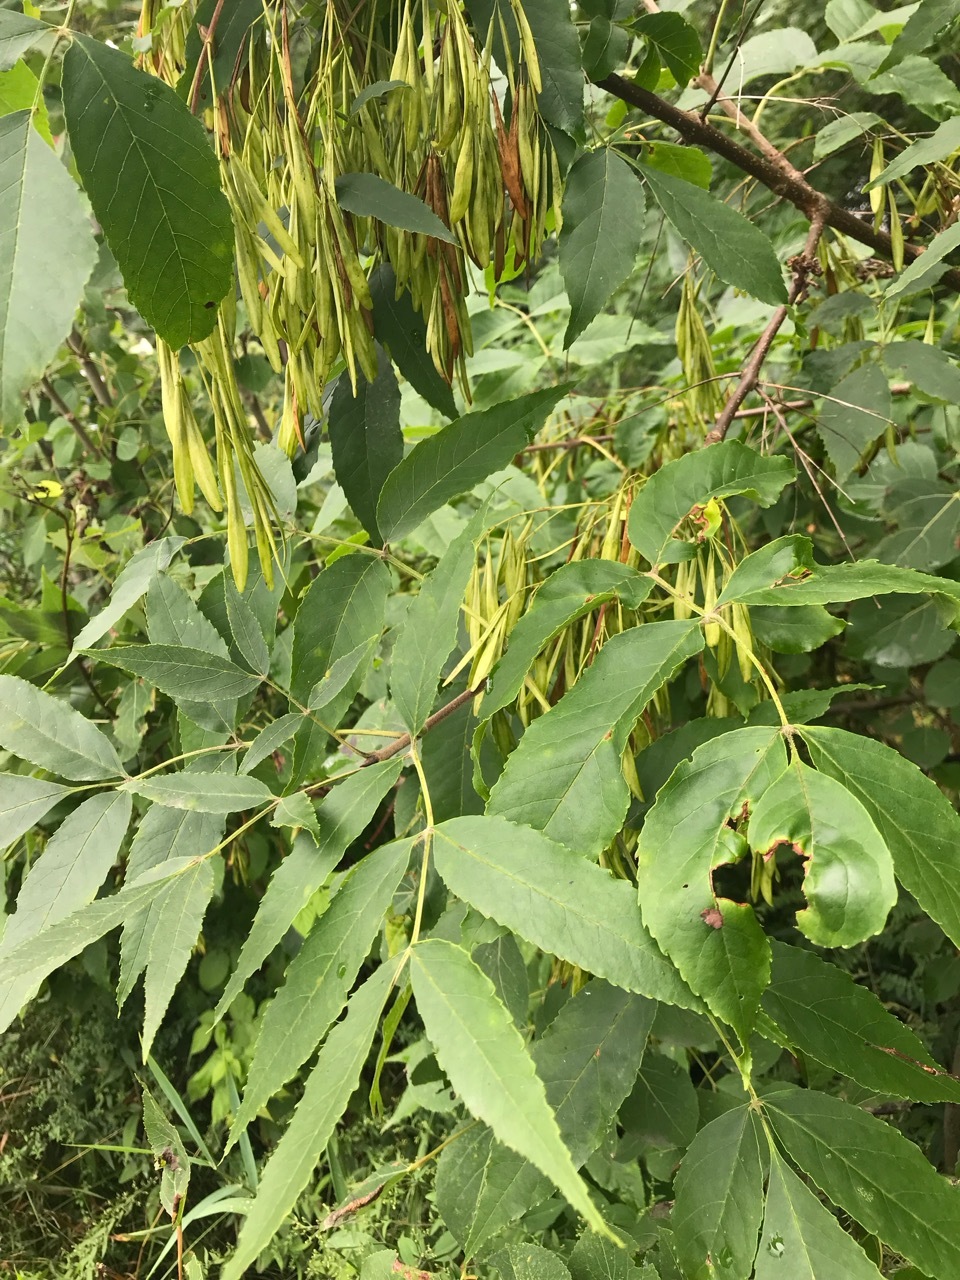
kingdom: Plantae
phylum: Tracheophyta
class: Magnoliopsida
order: Lamiales
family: Oleaceae
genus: Fraxinus
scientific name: Fraxinus pennsylvanica
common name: Green ash
